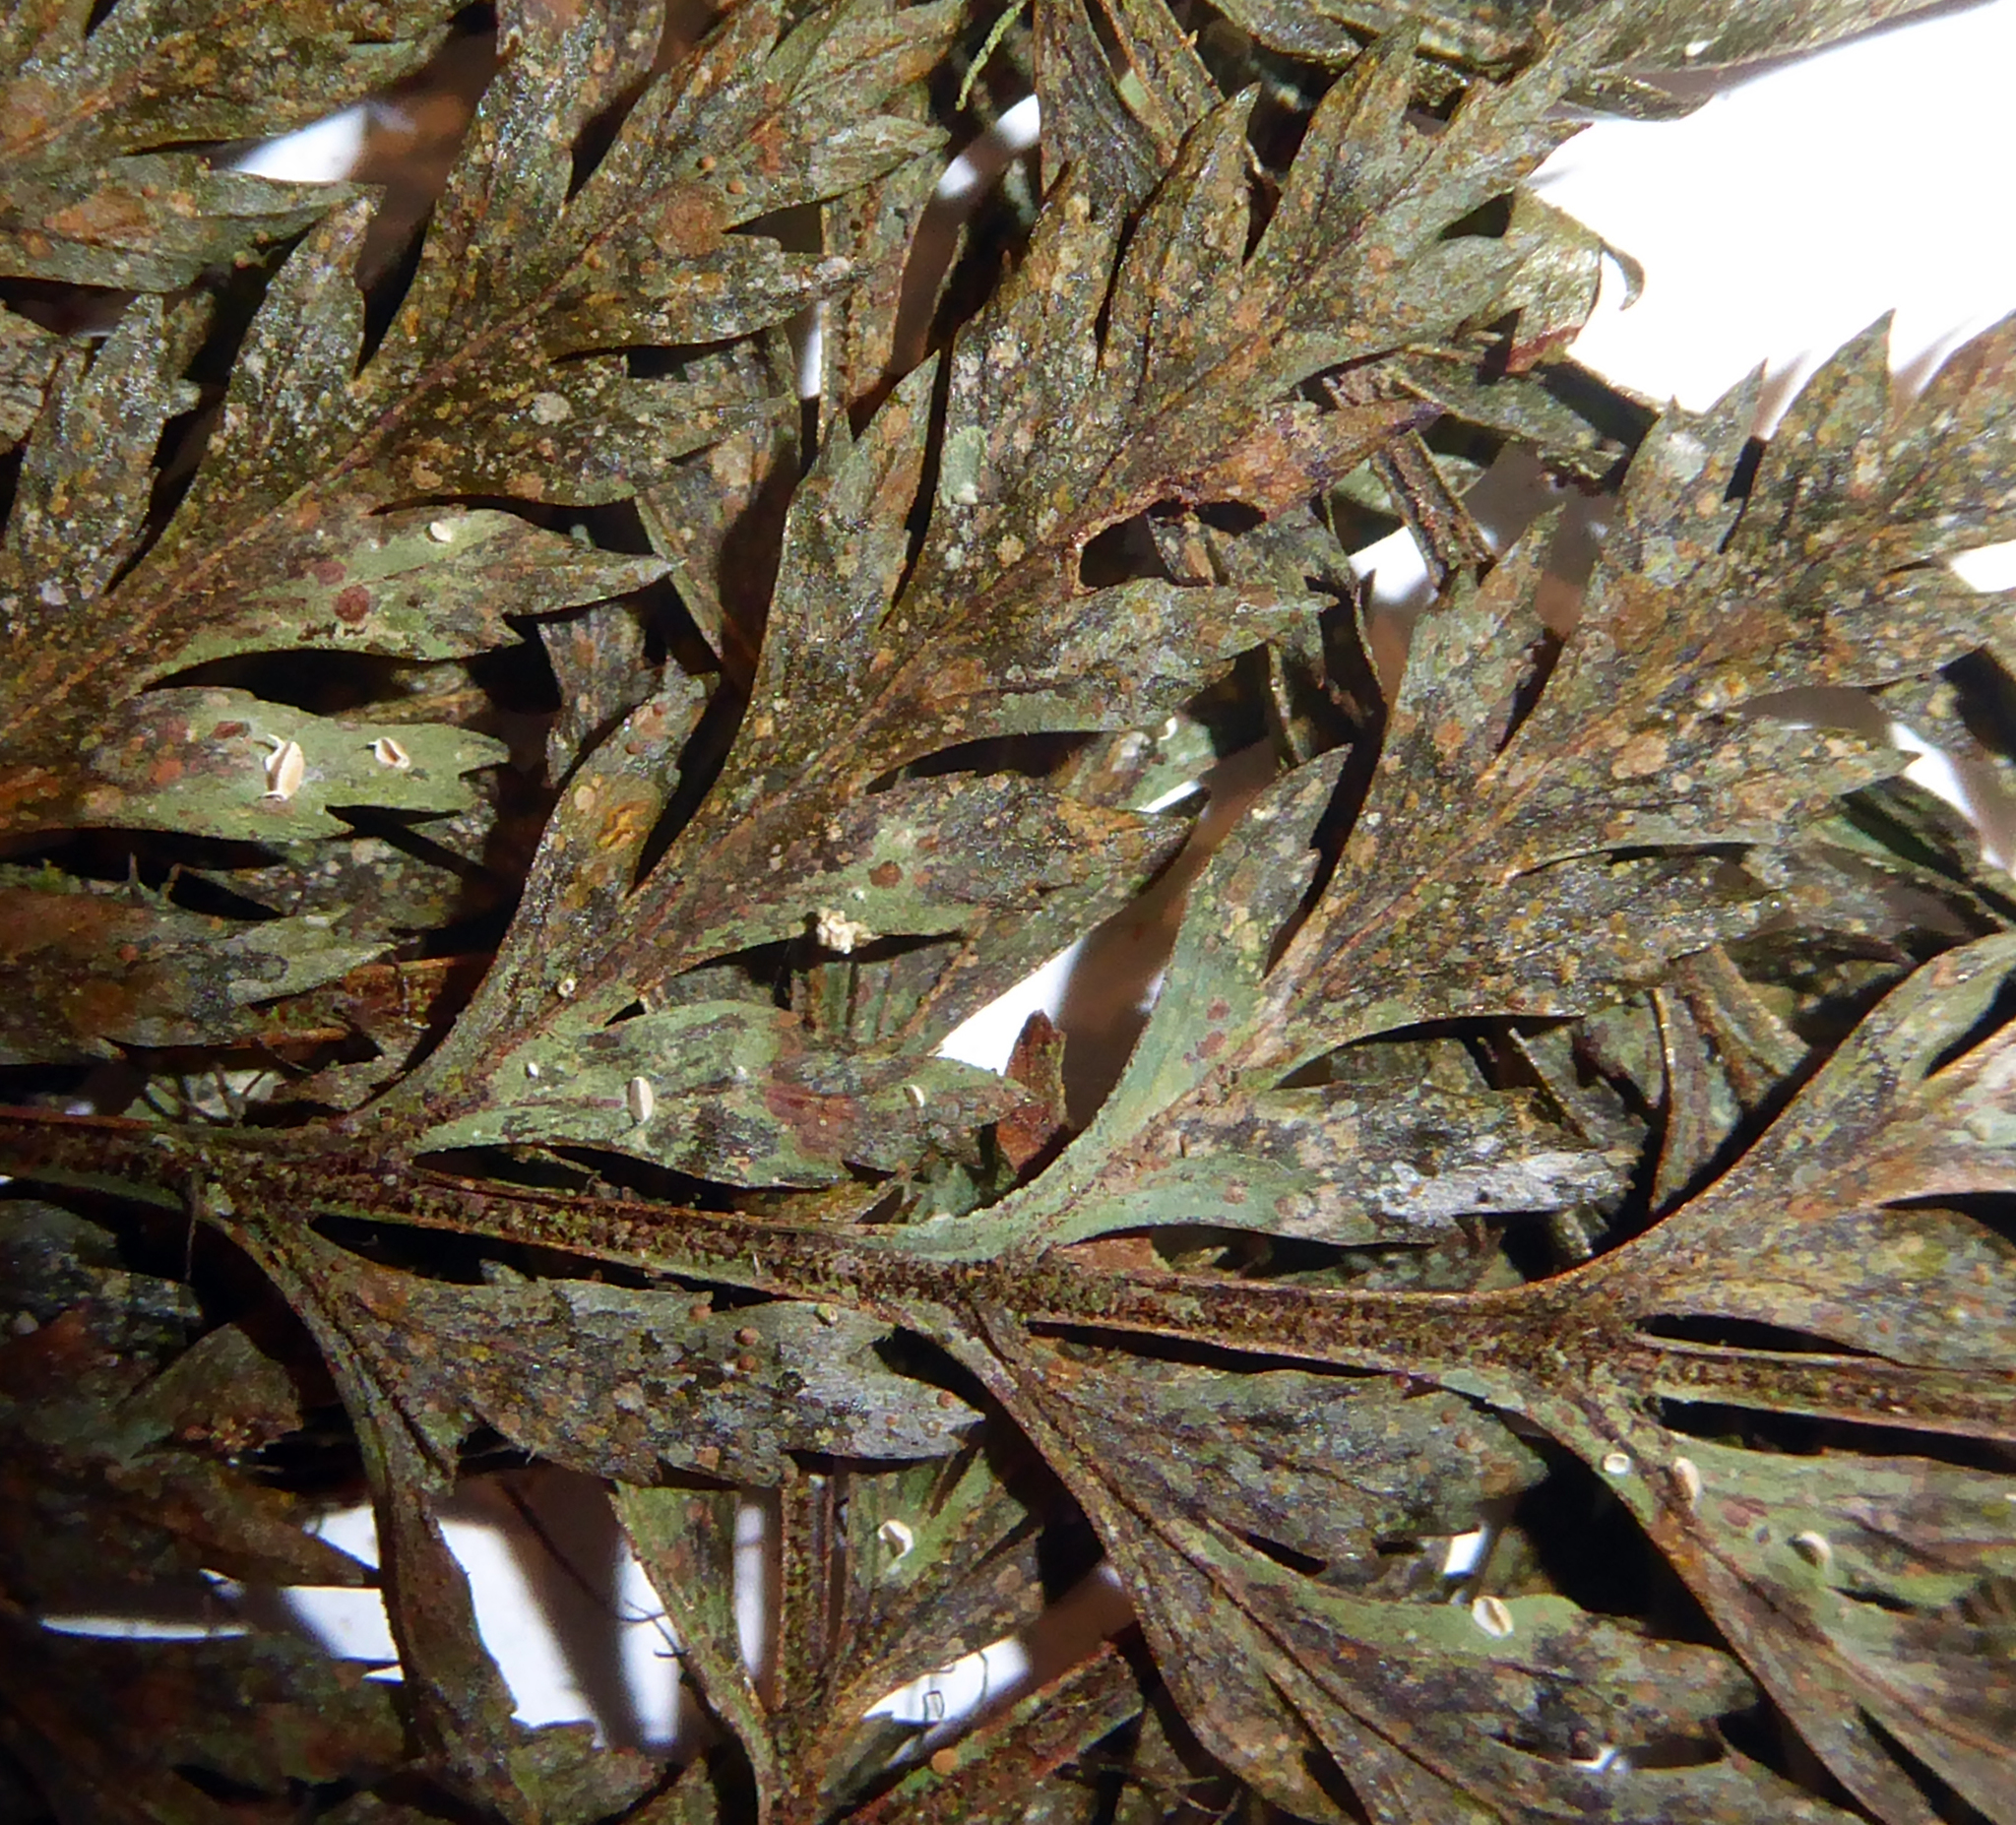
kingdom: Fungi
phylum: Ascomycota
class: Lecanoromycetes
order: Lecanorales
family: Byssolomataceae
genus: Badimiella
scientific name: Badimiella pteridophila
